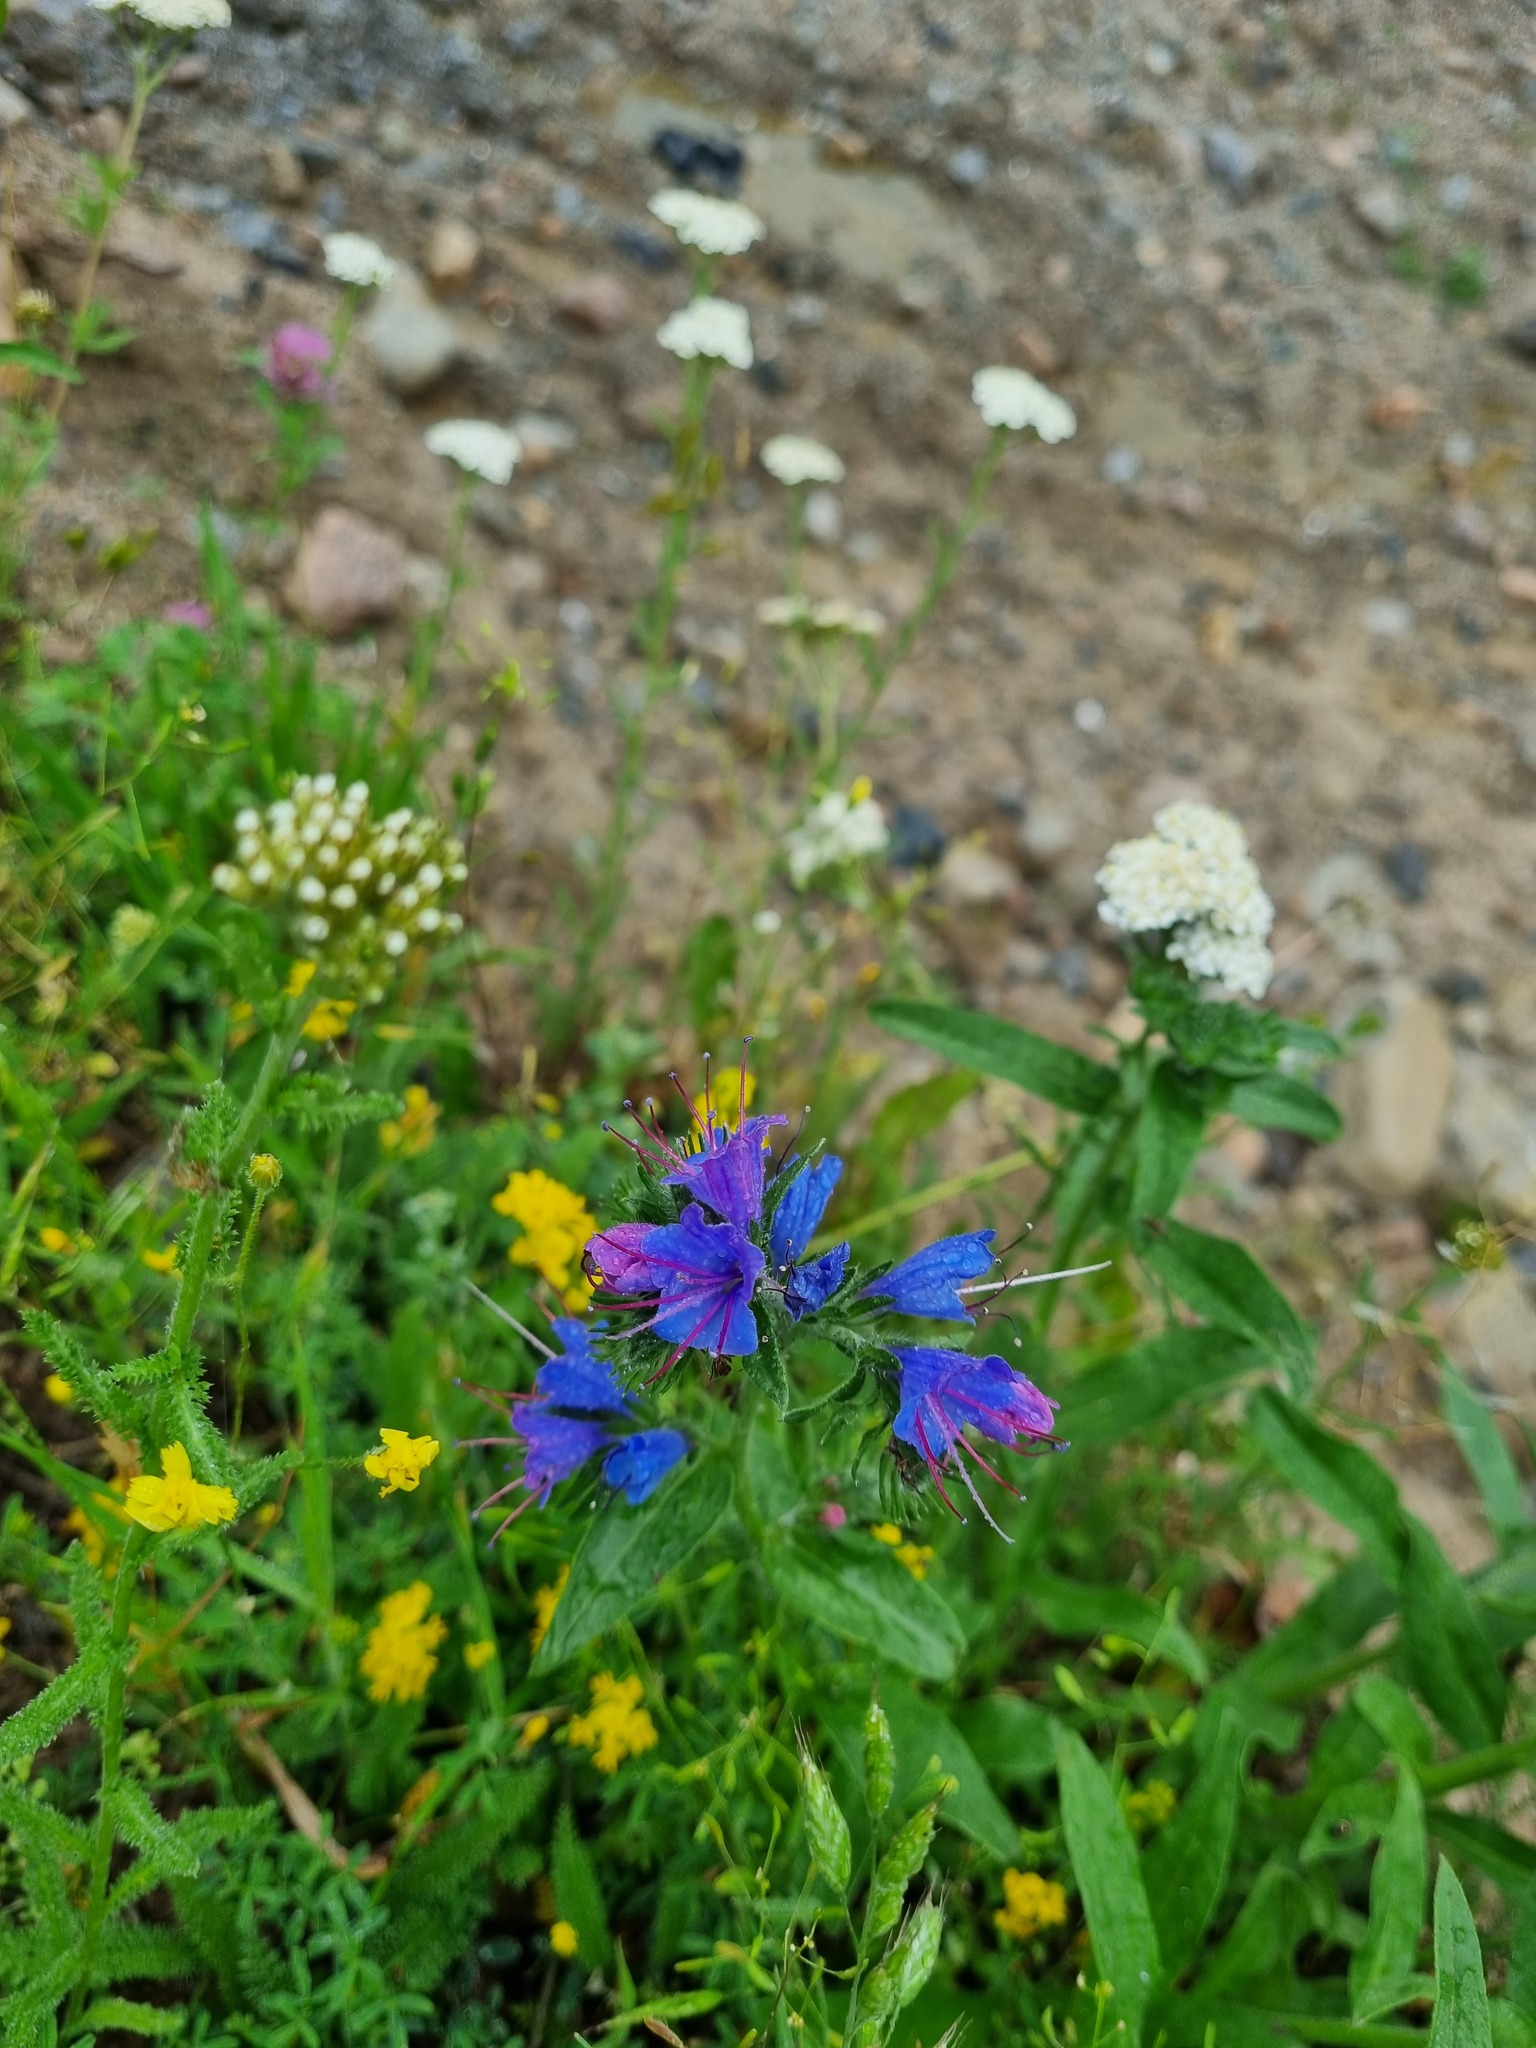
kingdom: Plantae
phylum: Tracheophyta
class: Magnoliopsida
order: Boraginales
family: Boraginaceae
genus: Echium
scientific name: Echium vulgare
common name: Common viper's bugloss
